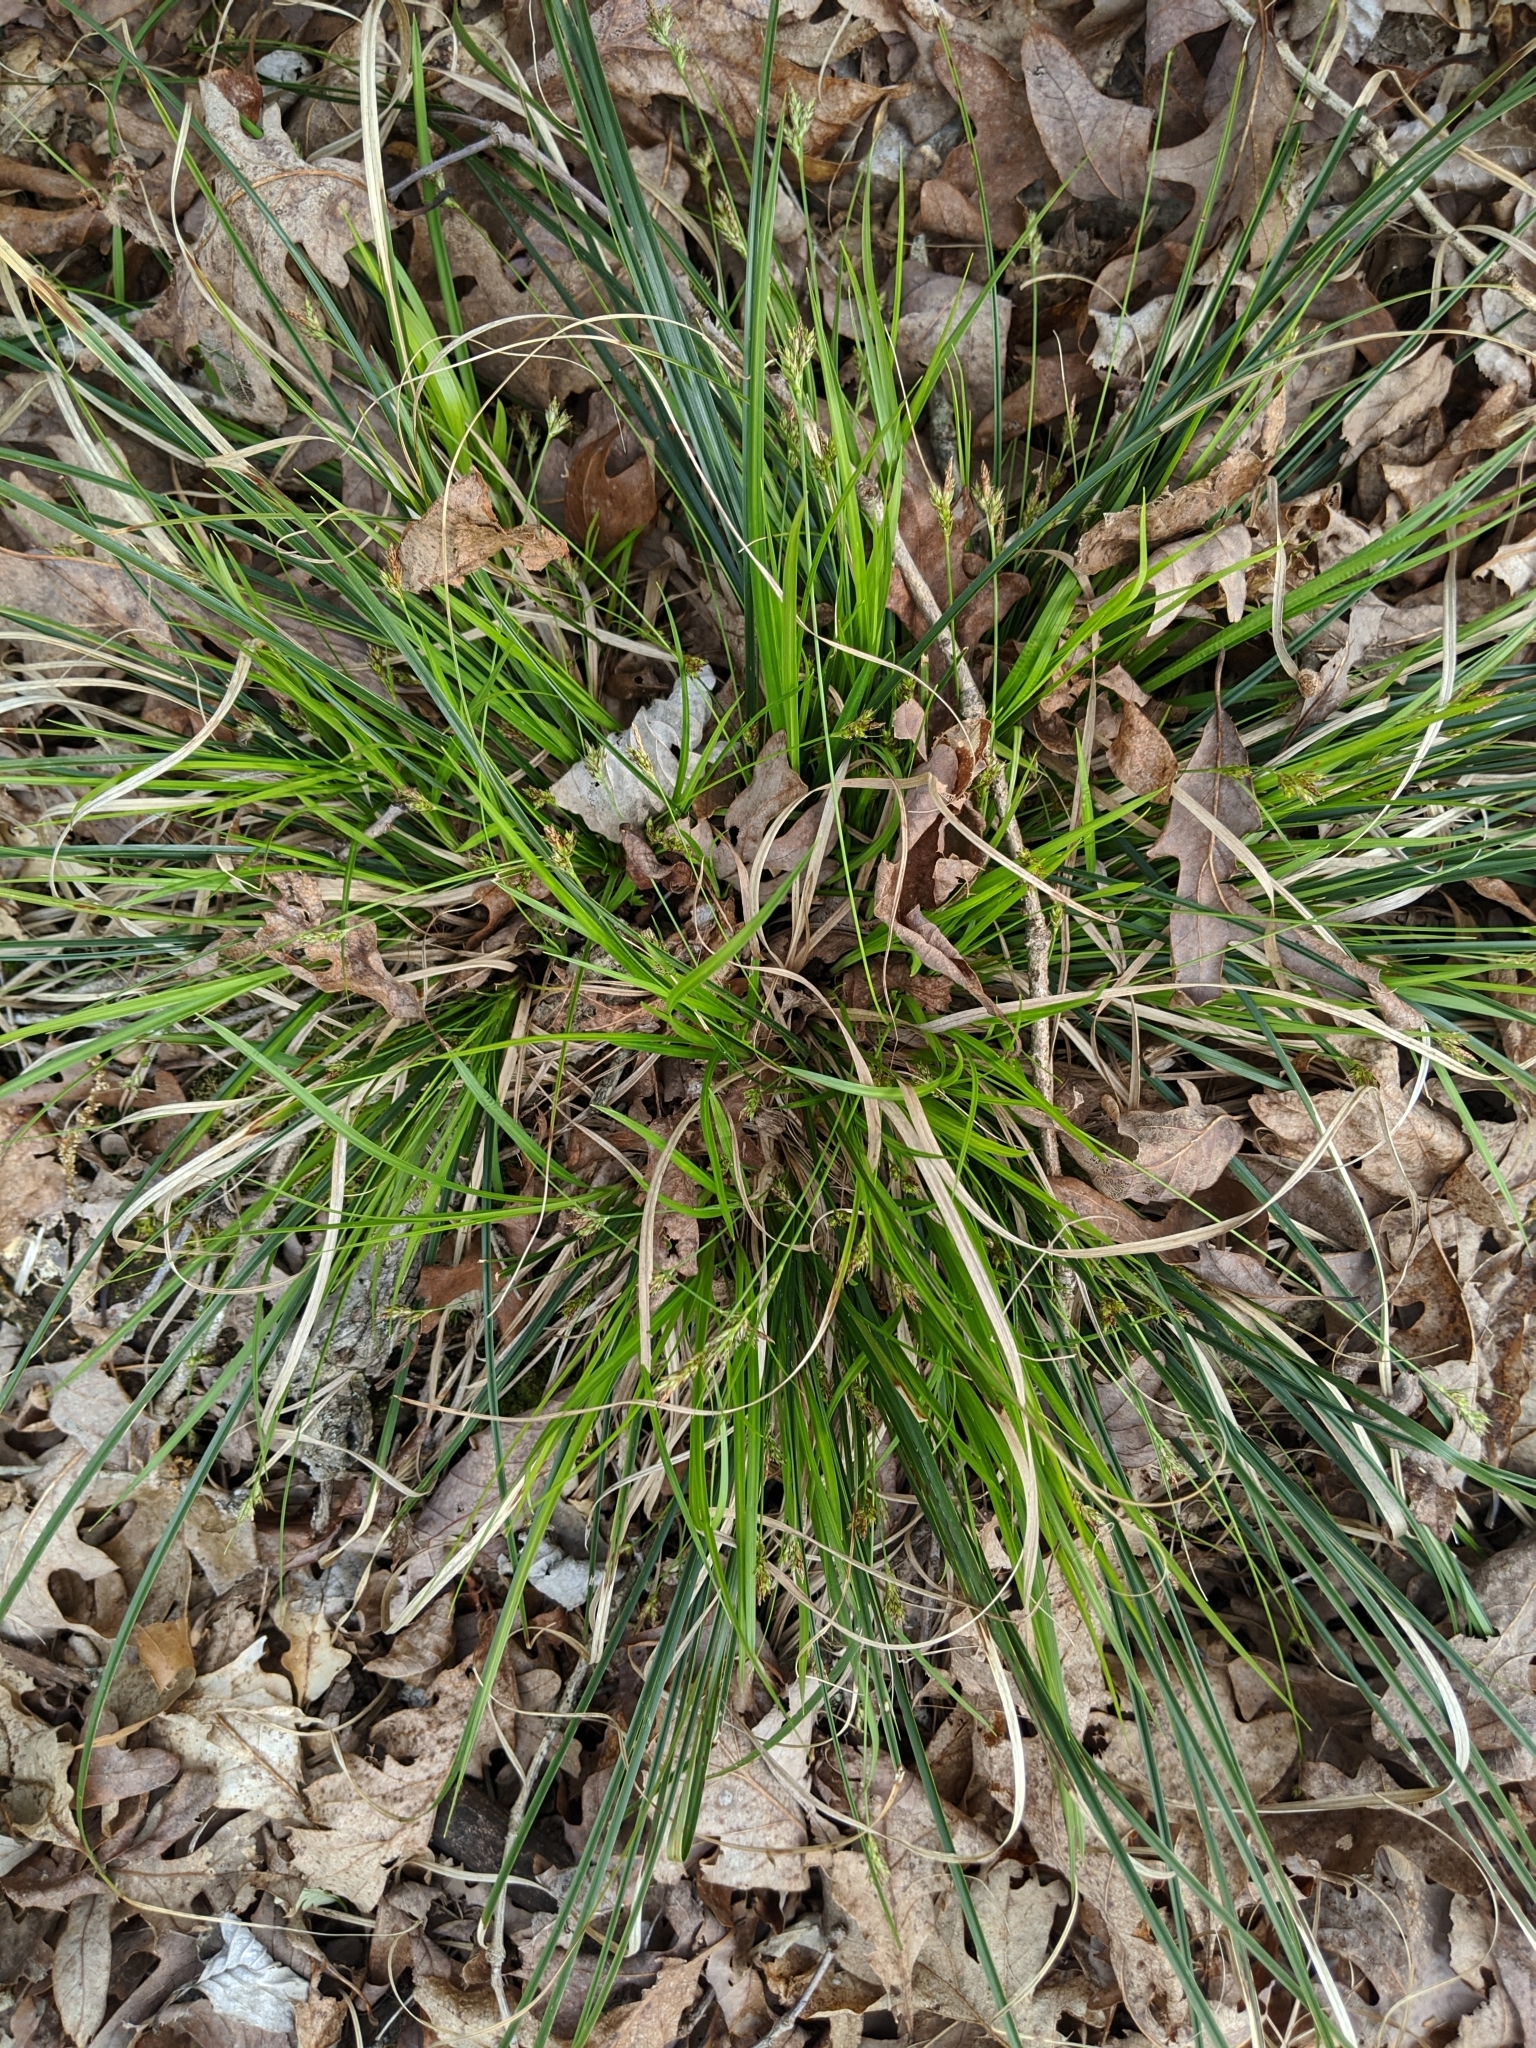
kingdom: Plantae
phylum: Tracheophyta
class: Liliopsida
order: Poales
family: Cyperaceae
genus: Carex
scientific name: Carex nigromarginata
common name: Black-edged sedge
